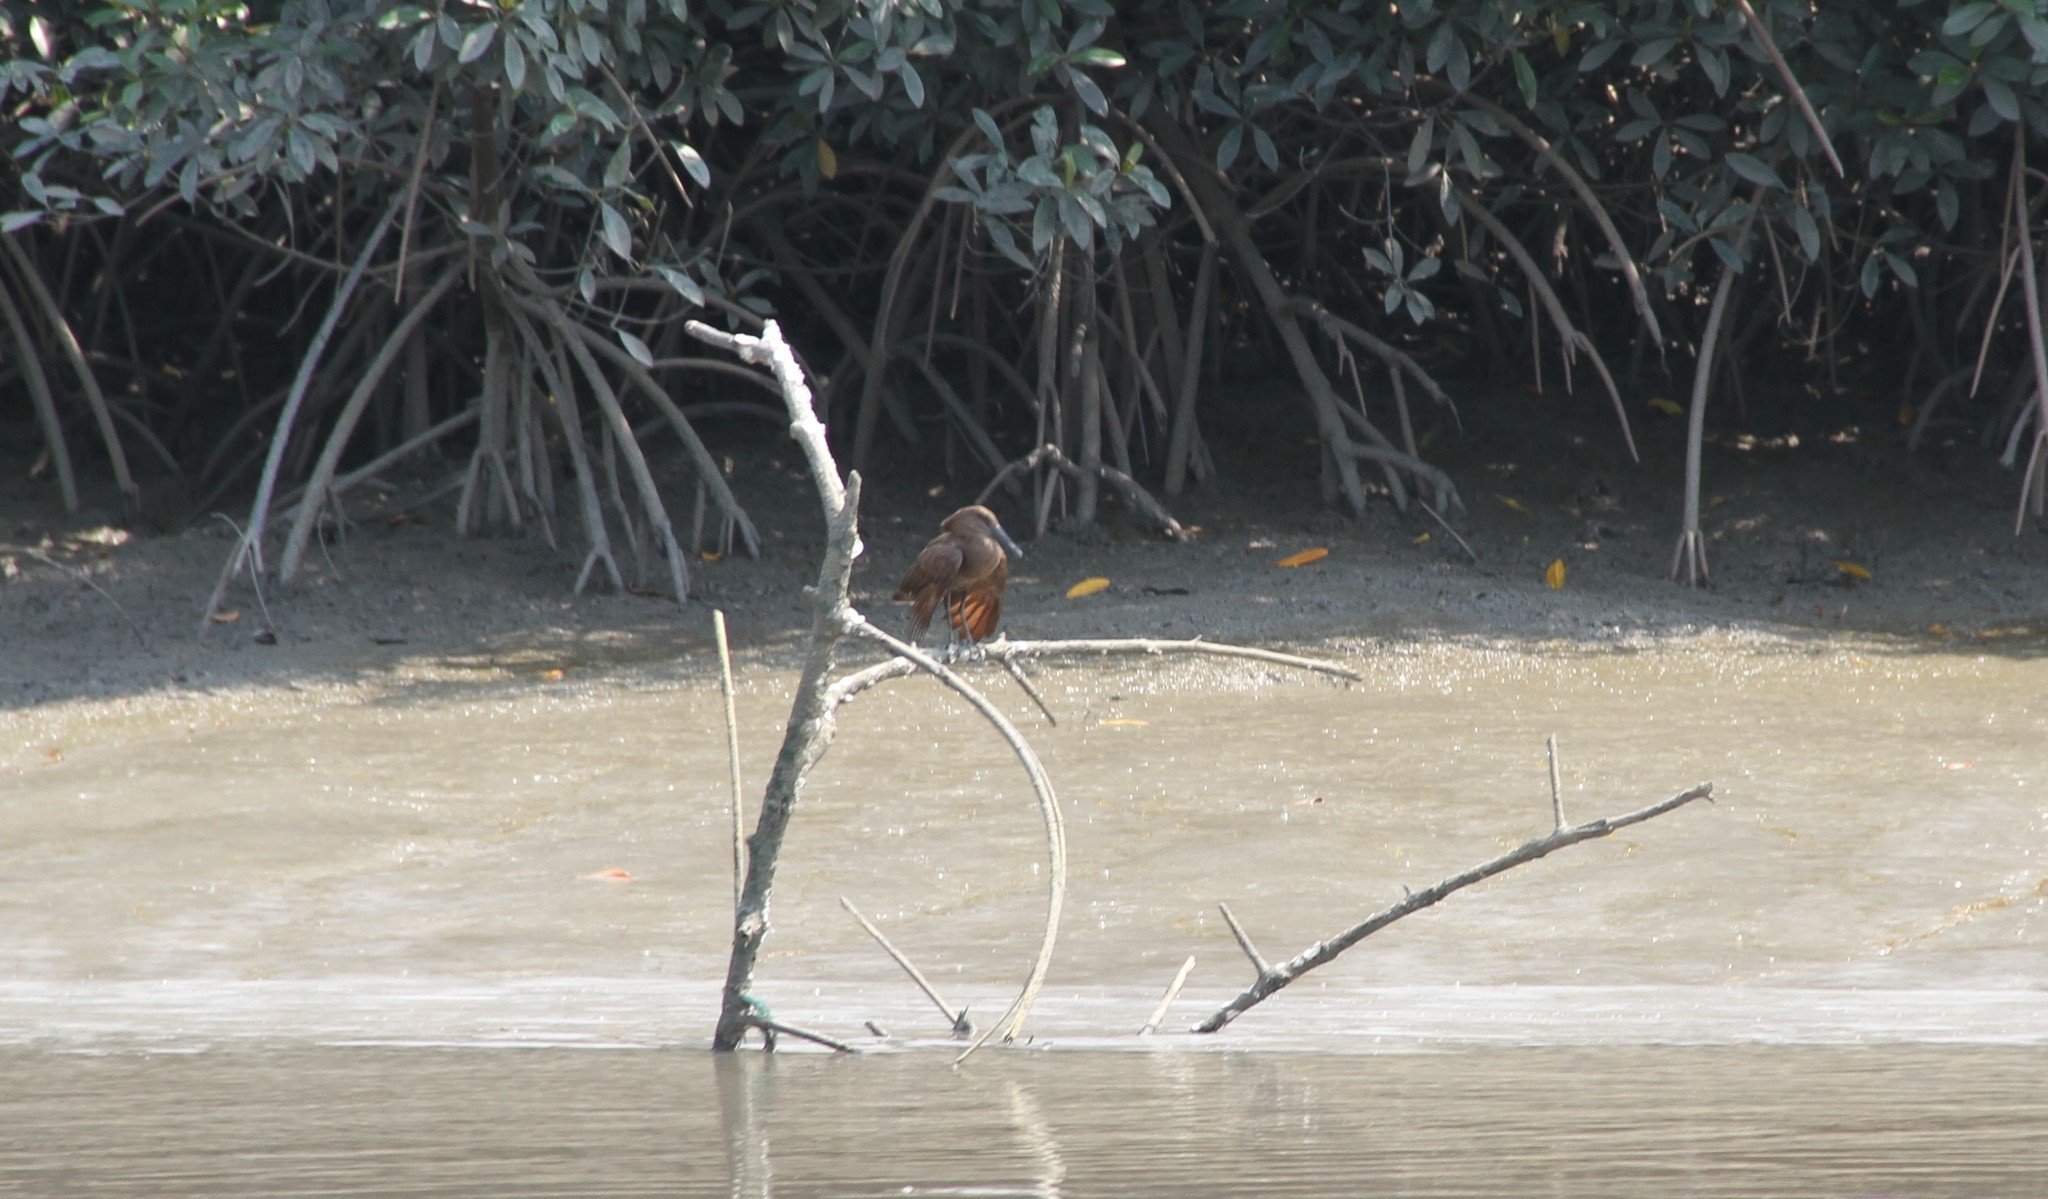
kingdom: Animalia
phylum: Chordata
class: Aves
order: Pelecaniformes
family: Scopidae
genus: Scopus
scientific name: Scopus umbretta
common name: Hamerkop
